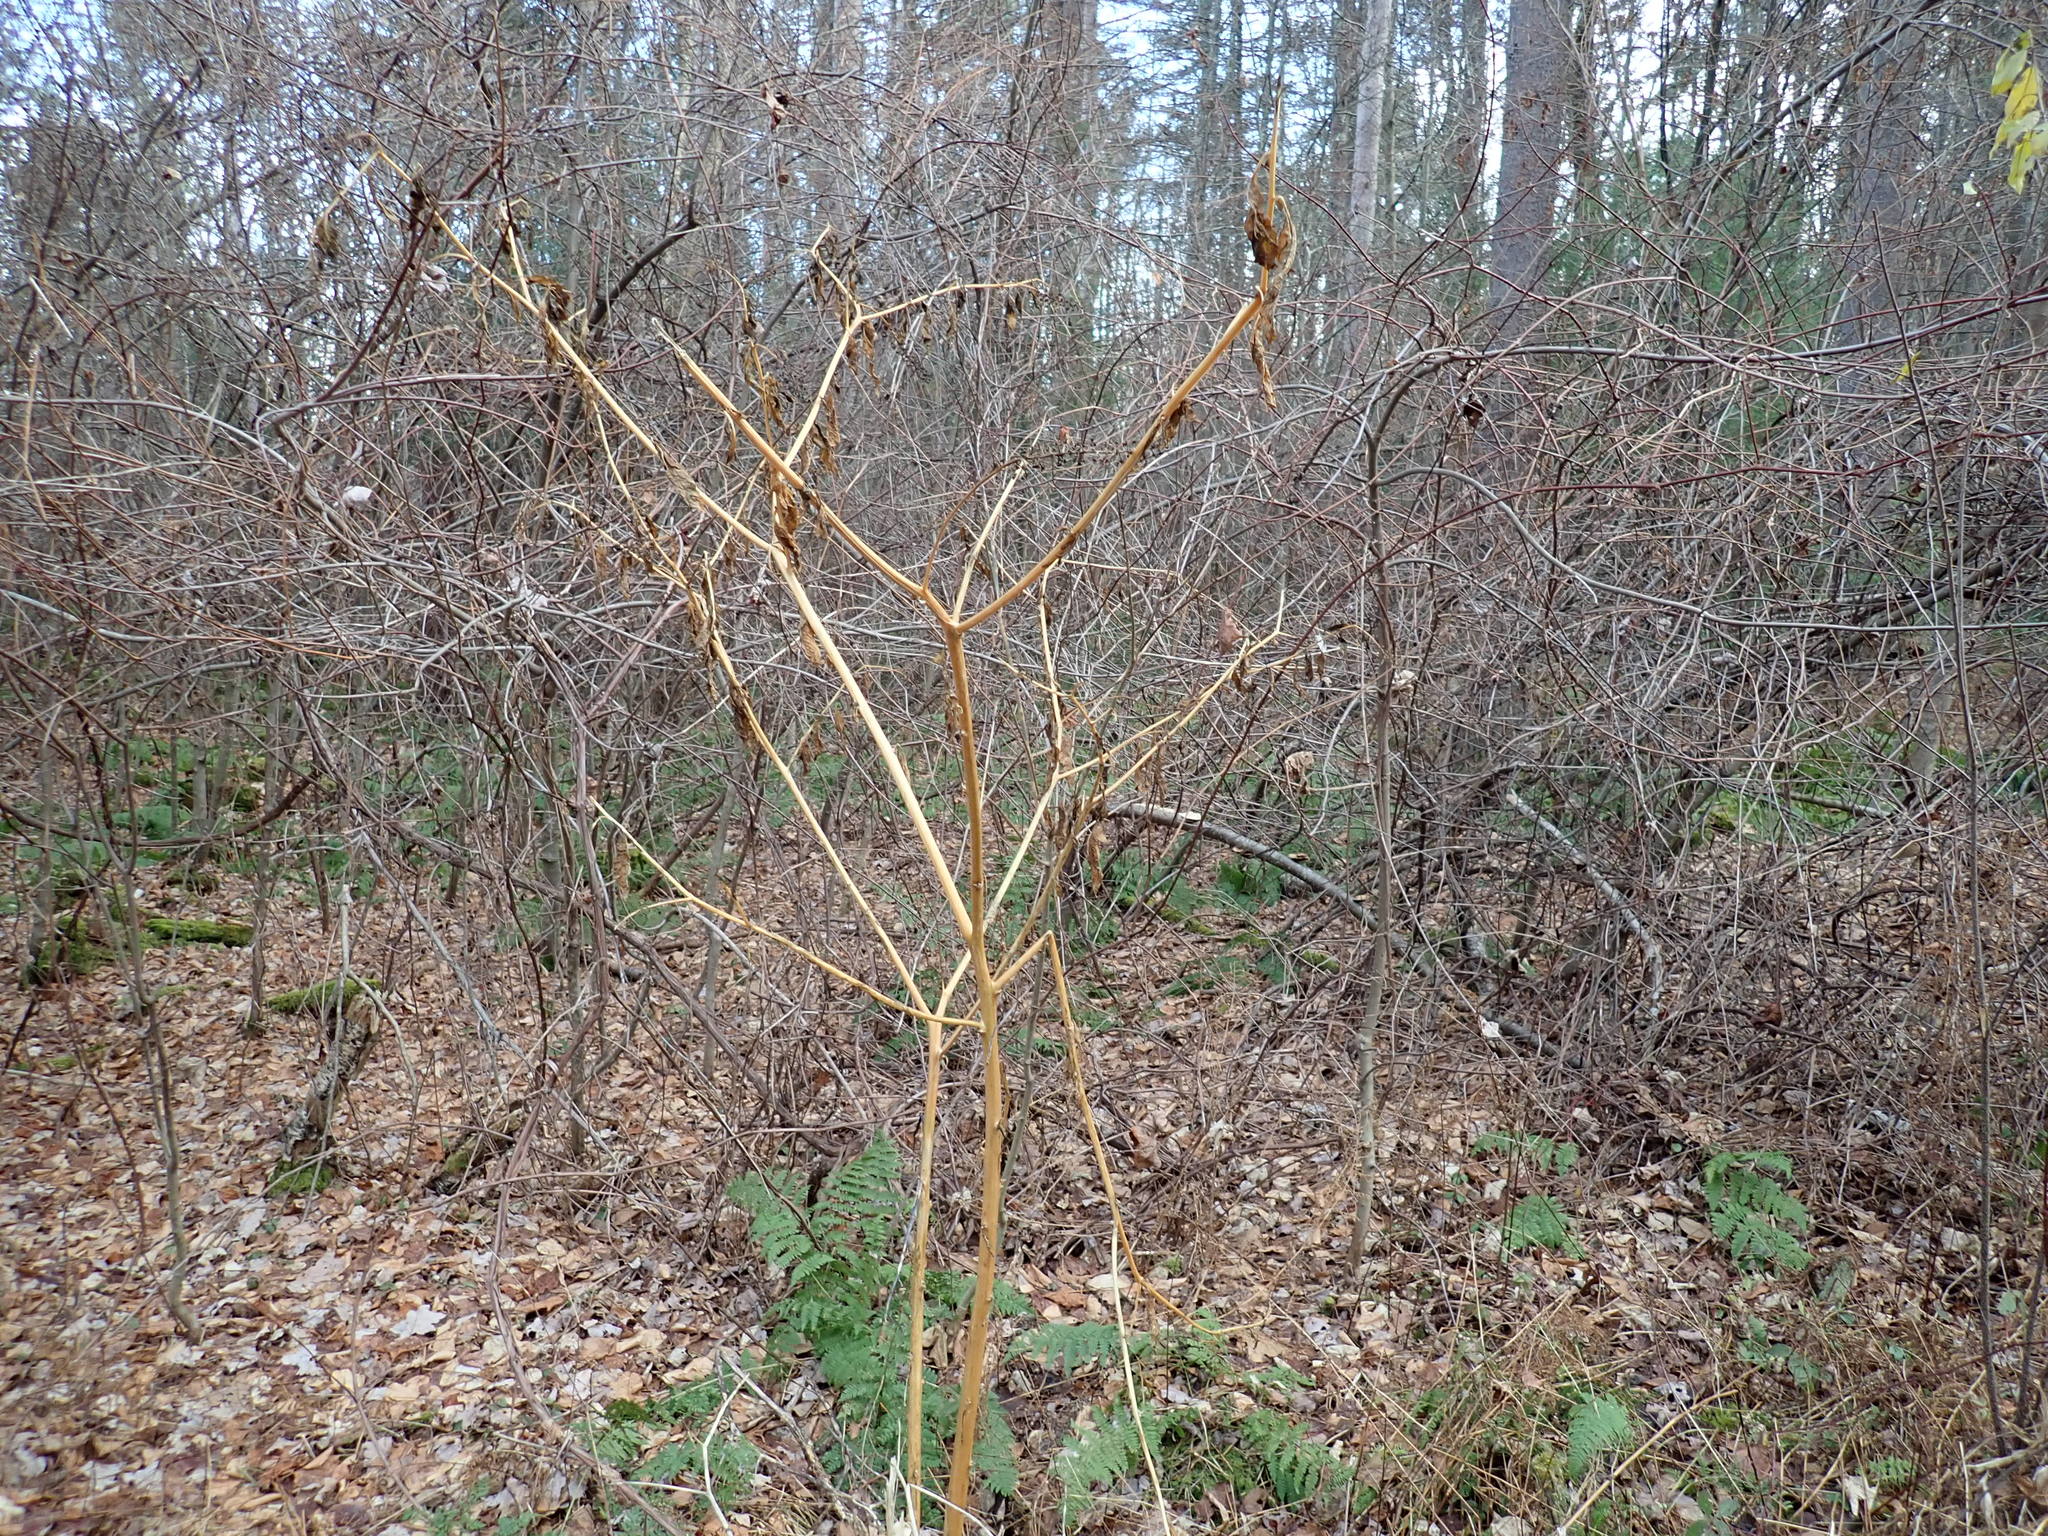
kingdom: Plantae
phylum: Tracheophyta
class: Magnoliopsida
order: Caryophyllales
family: Phytolaccaceae
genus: Phytolacca
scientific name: Phytolacca americana
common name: American pokeweed
